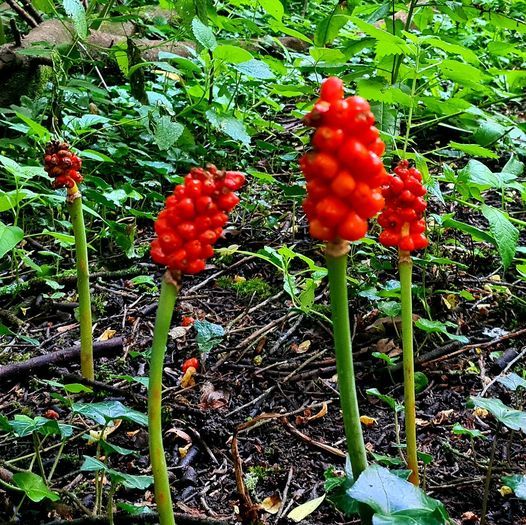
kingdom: Plantae
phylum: Tracheophyta
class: Liliopsida
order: Alismatales
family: Araceae
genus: Arum
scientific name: Arum maculatum
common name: Lords-and-ladies
